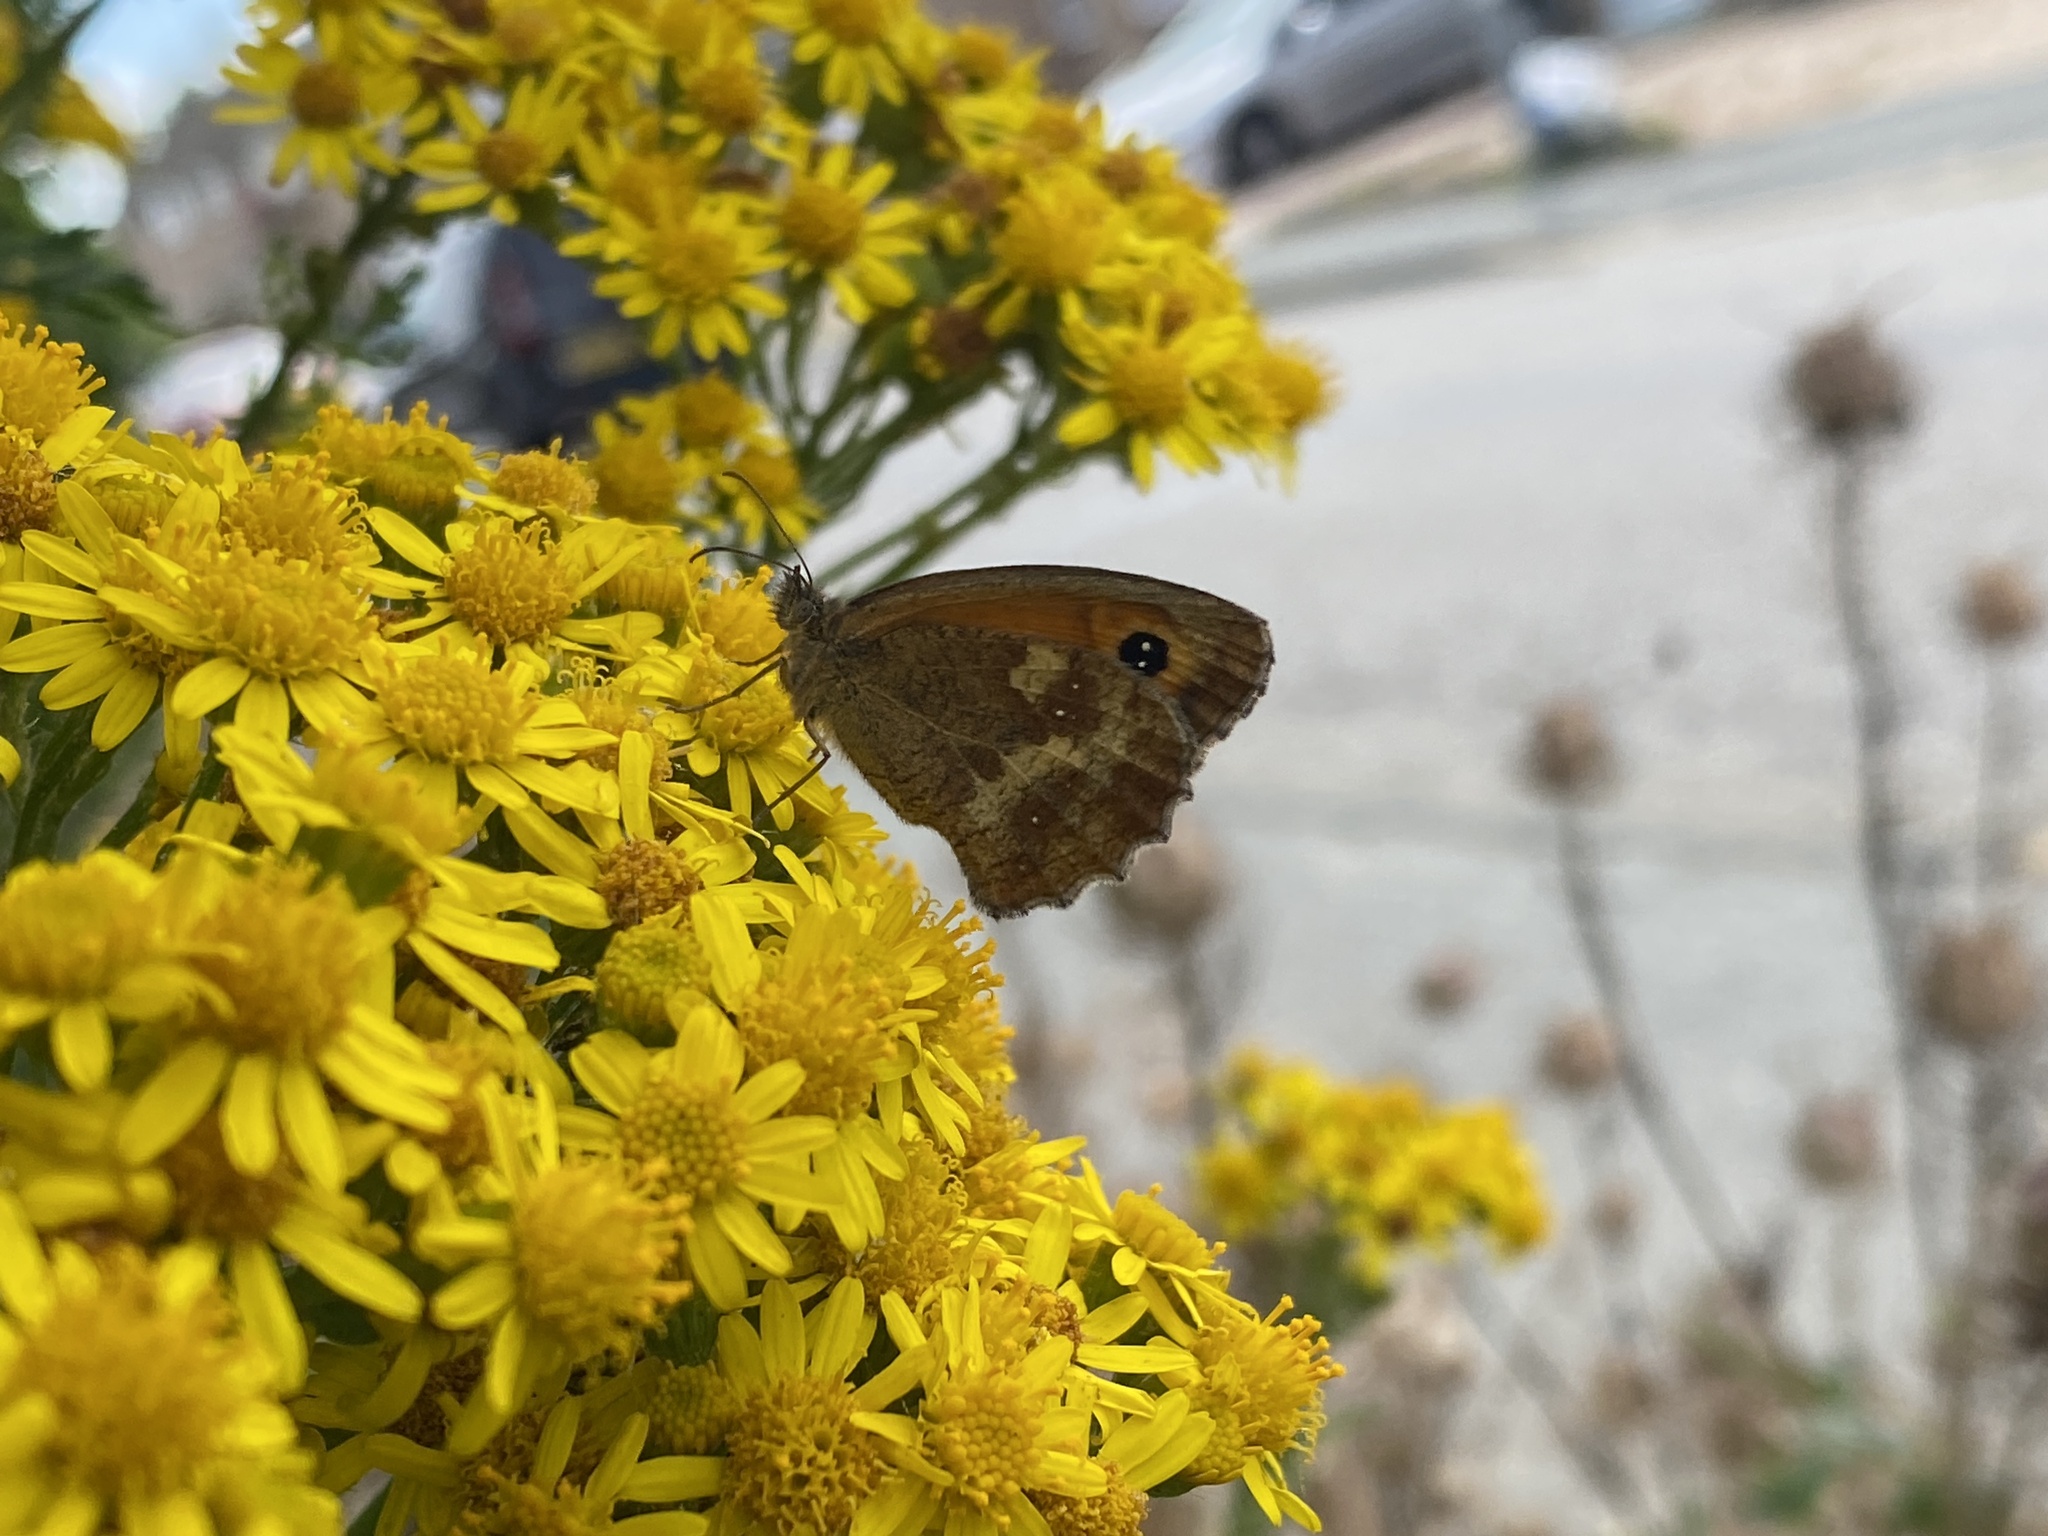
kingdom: Animalia
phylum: Arthropoda
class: Insecta
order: Lepidoptera
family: Nymphalidae
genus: Pyronia
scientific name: Pyronia tithonus
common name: Gatekeeper
